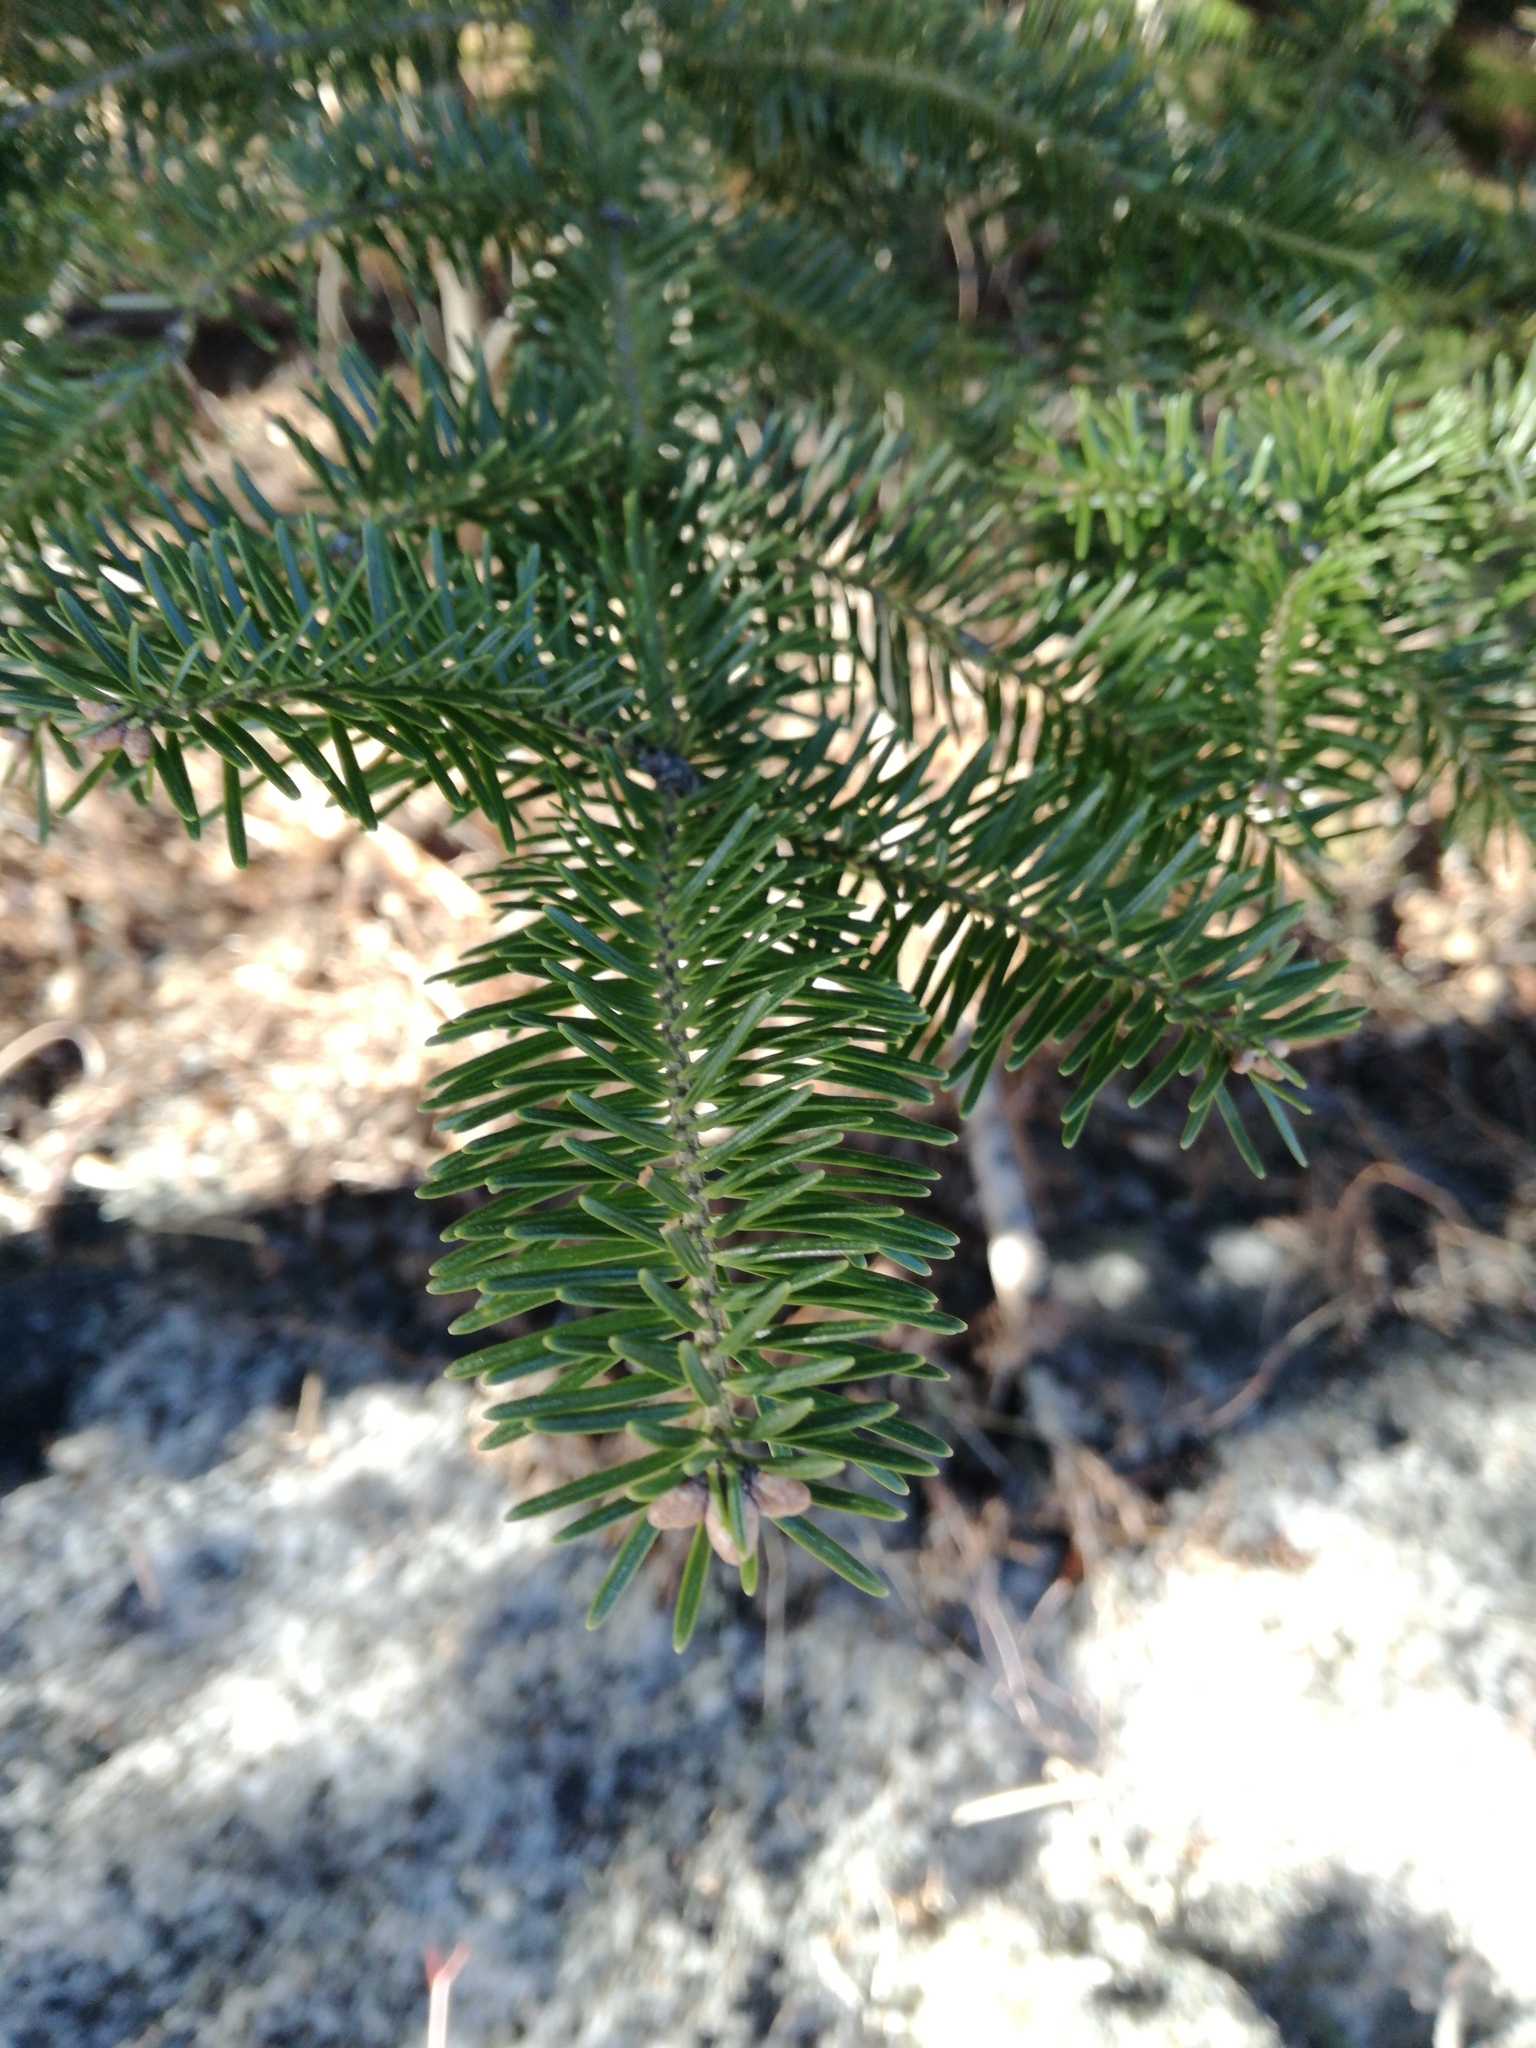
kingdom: Plantae
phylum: Tracheophyta
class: Pinopsida
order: Pinales
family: Pinaceae
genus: Abies
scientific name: Abies balsamea
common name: Balsam fir
